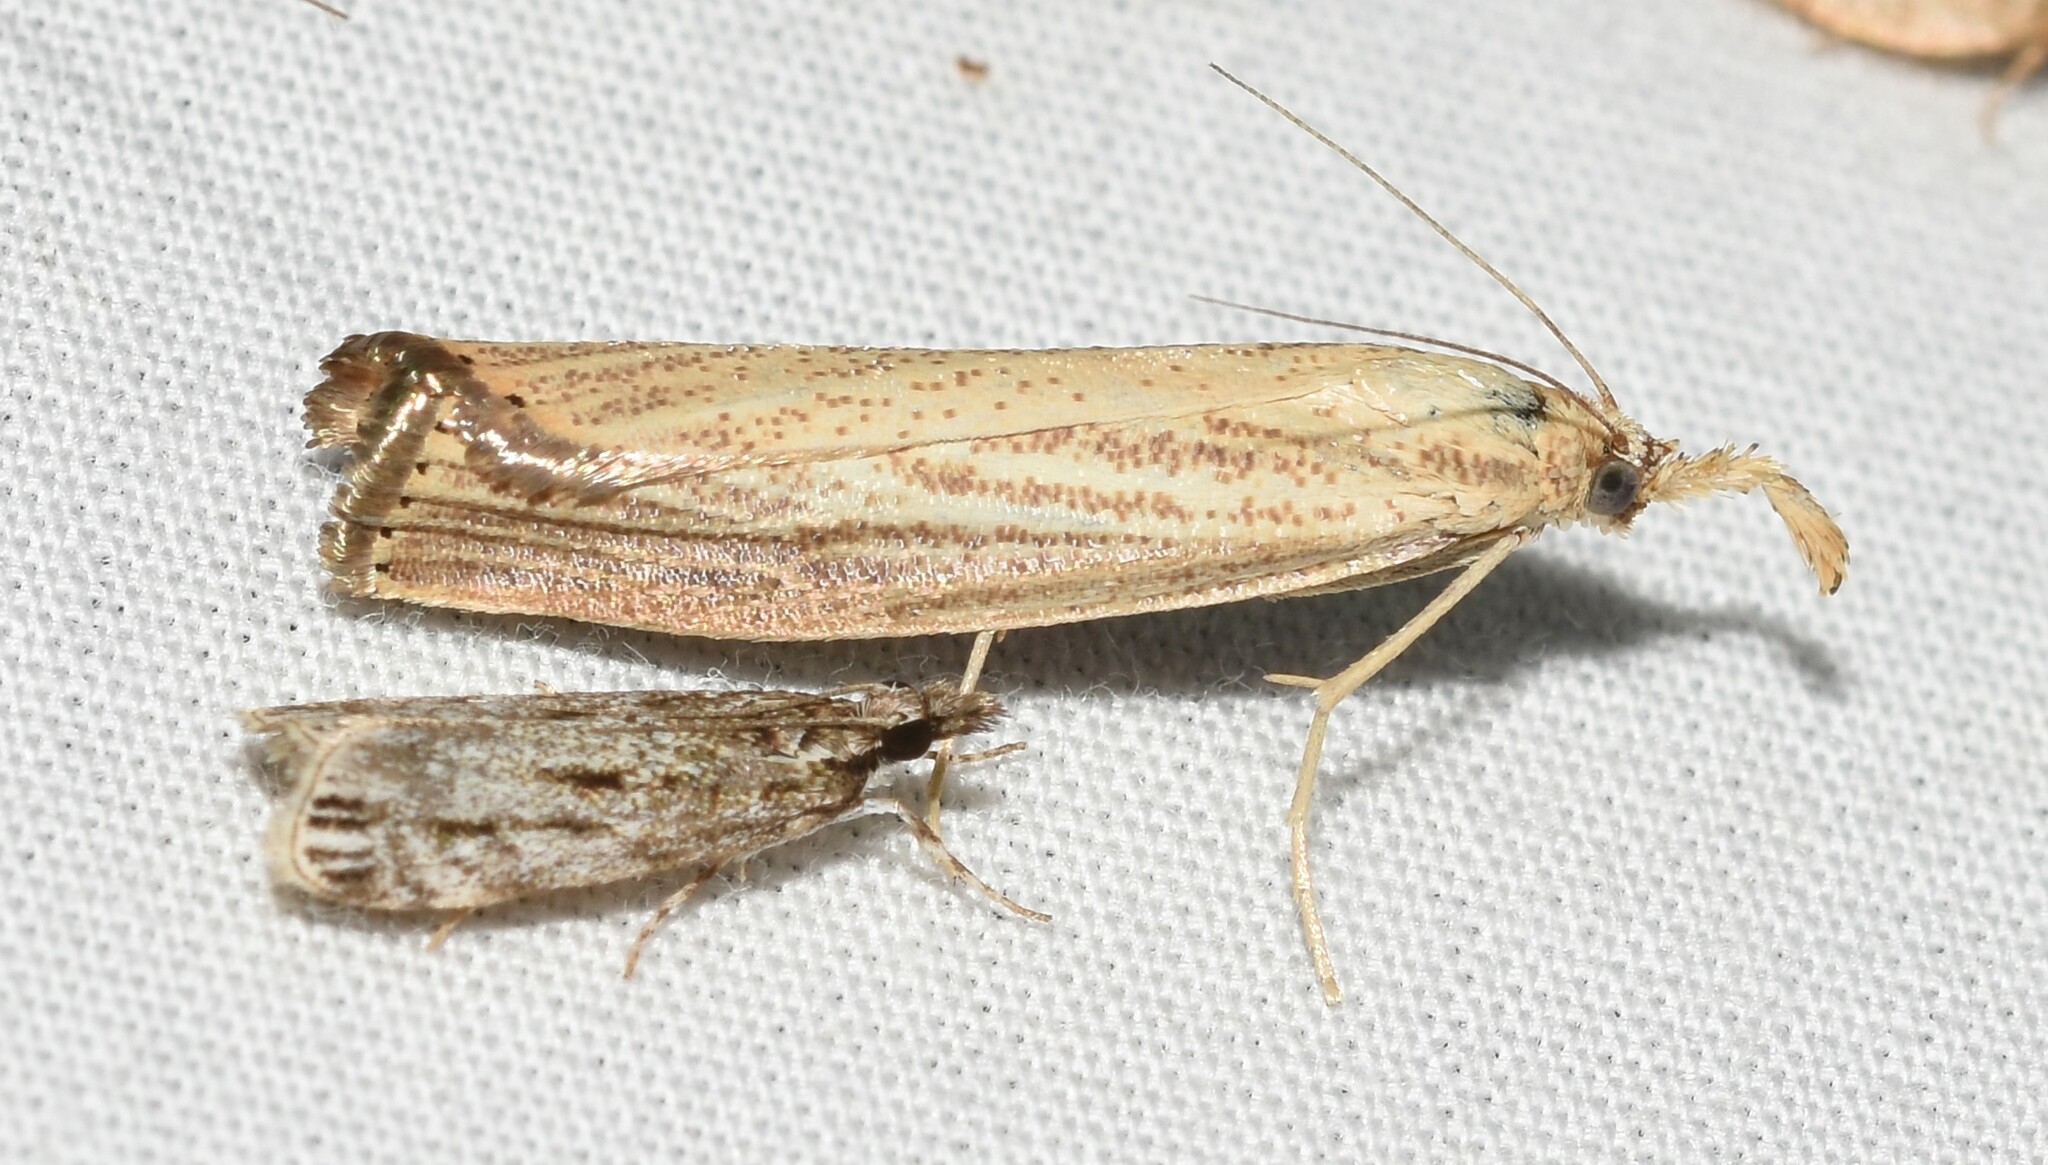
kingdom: Animalia
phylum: Arthropoda
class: Insecta
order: Lepidoptera
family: Crambidae
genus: Agriphila
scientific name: Agriphila vulgivagellus
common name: Vagabond crambus moth
